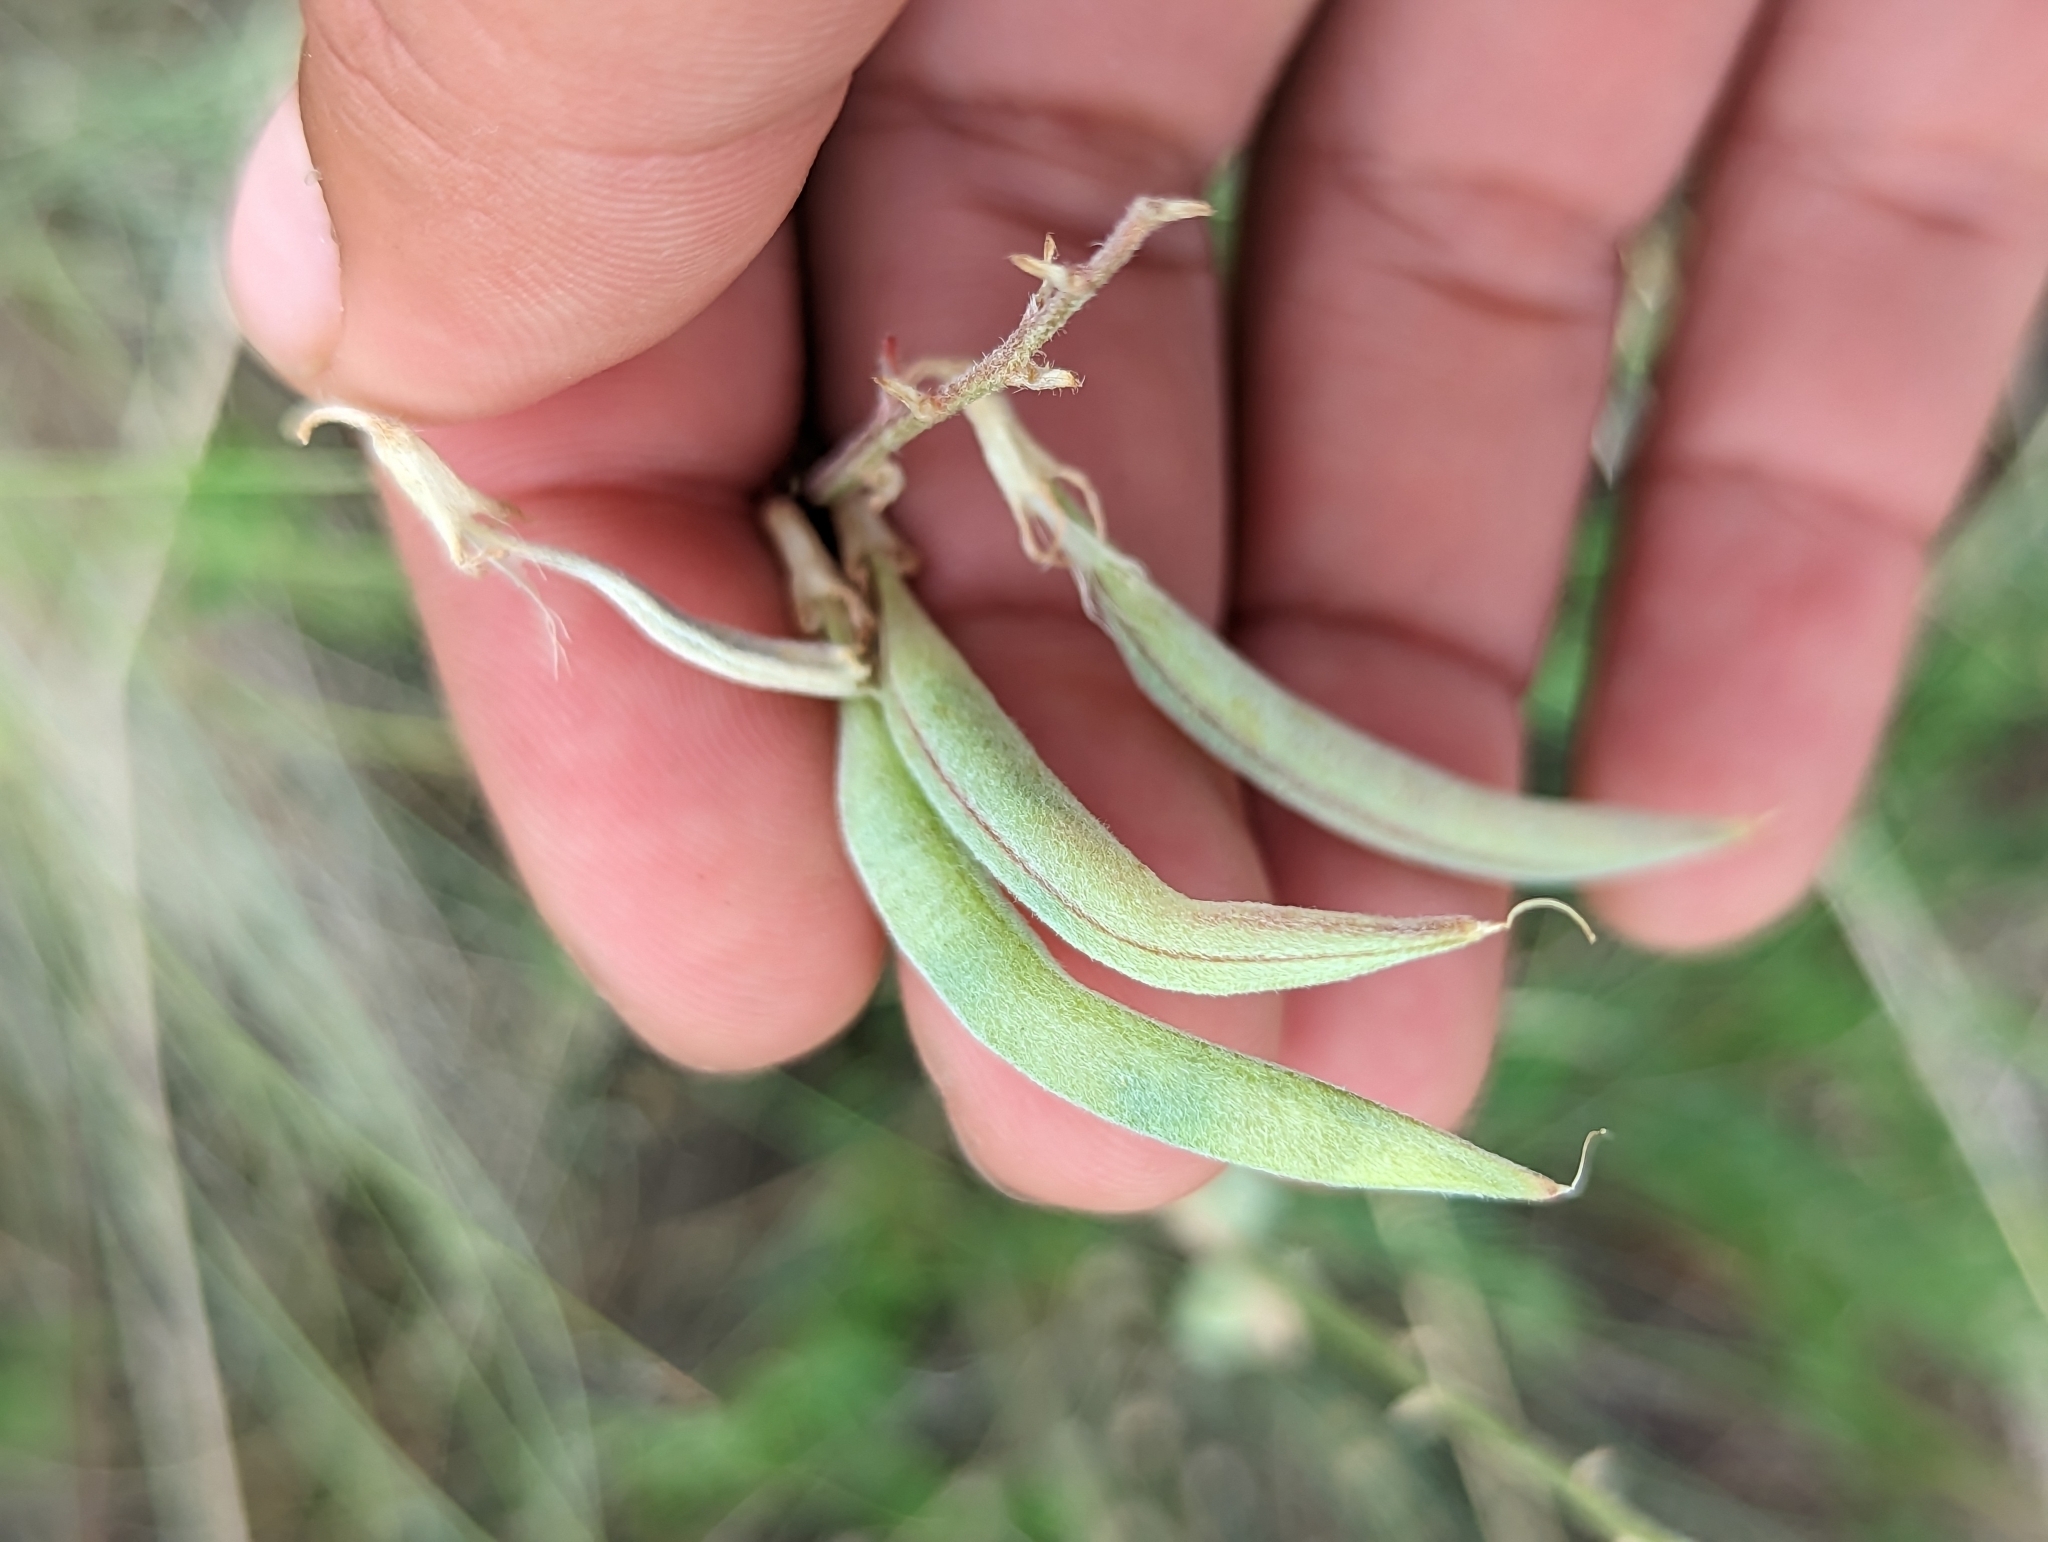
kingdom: Plantae
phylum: Tracheophyta
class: Magnoliopsida
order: Fabales
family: Fabaceae
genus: Astragalus
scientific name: Astragalus arthuri
